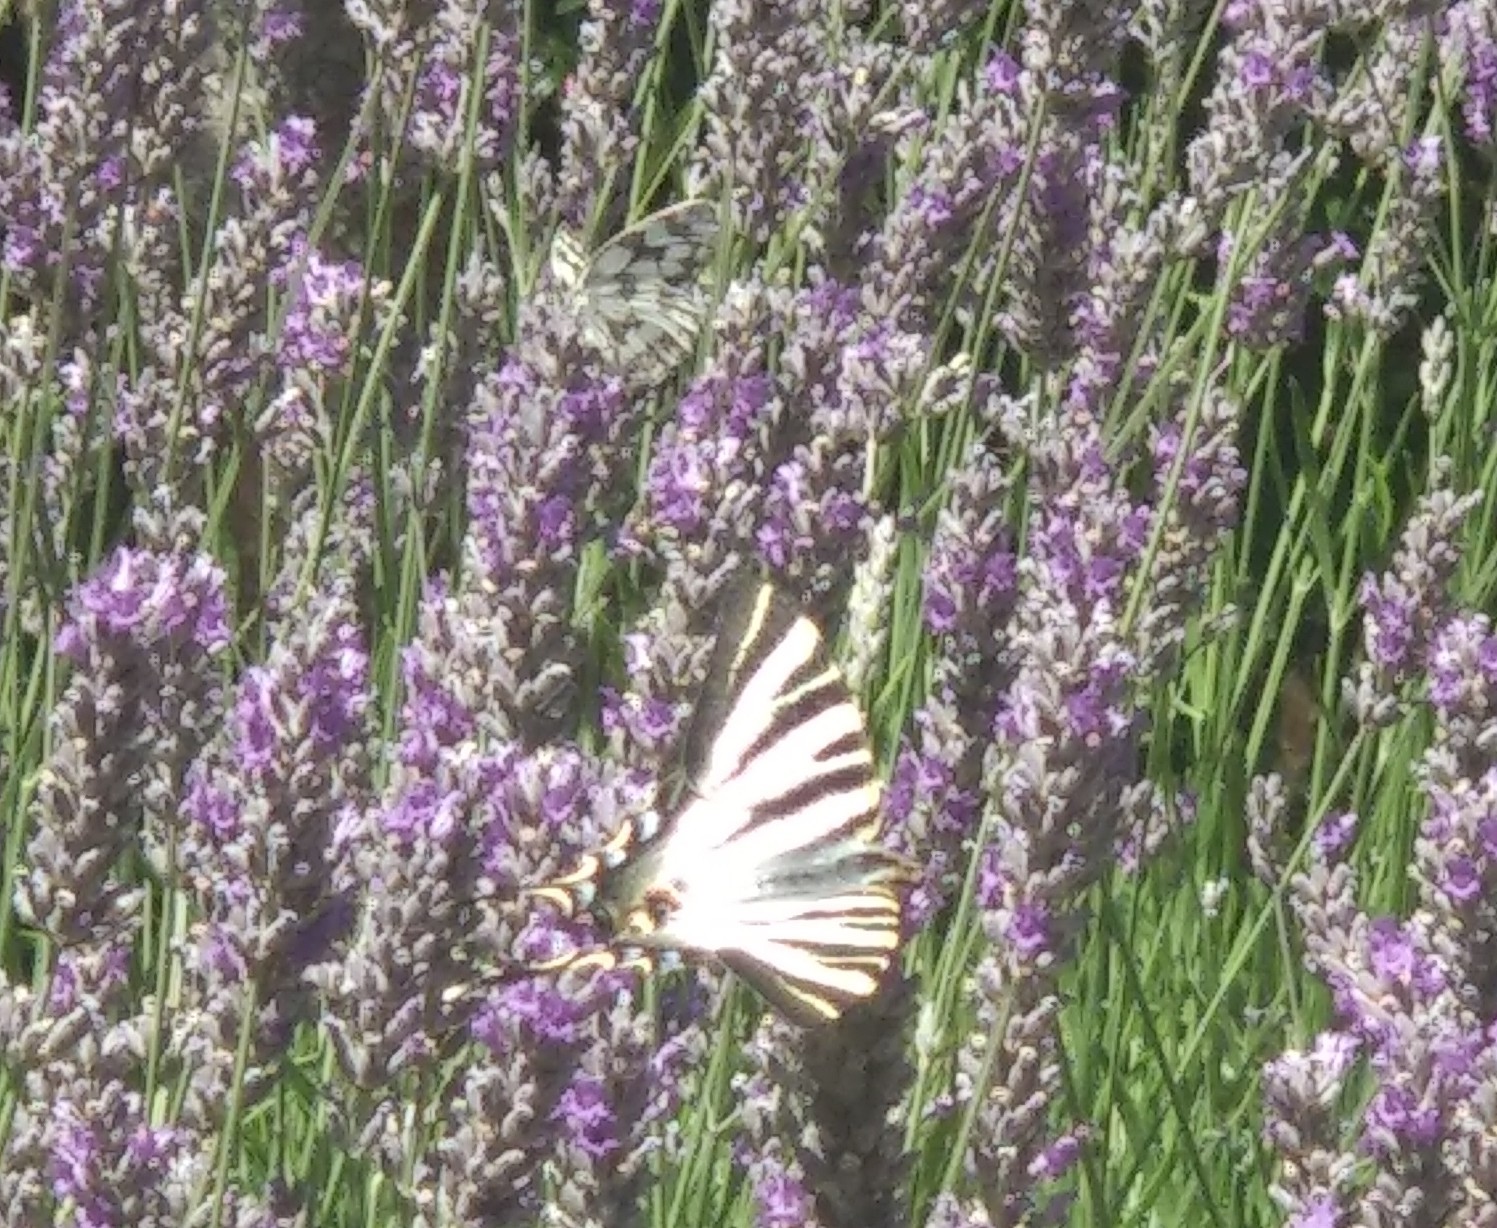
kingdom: Animalia
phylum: Arthropoda
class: Insecta
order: Lepidoptera
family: Papilionidae
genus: Iphiclides
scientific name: Iphiclides feisthamelii
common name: Iberian scarce swallowtail
